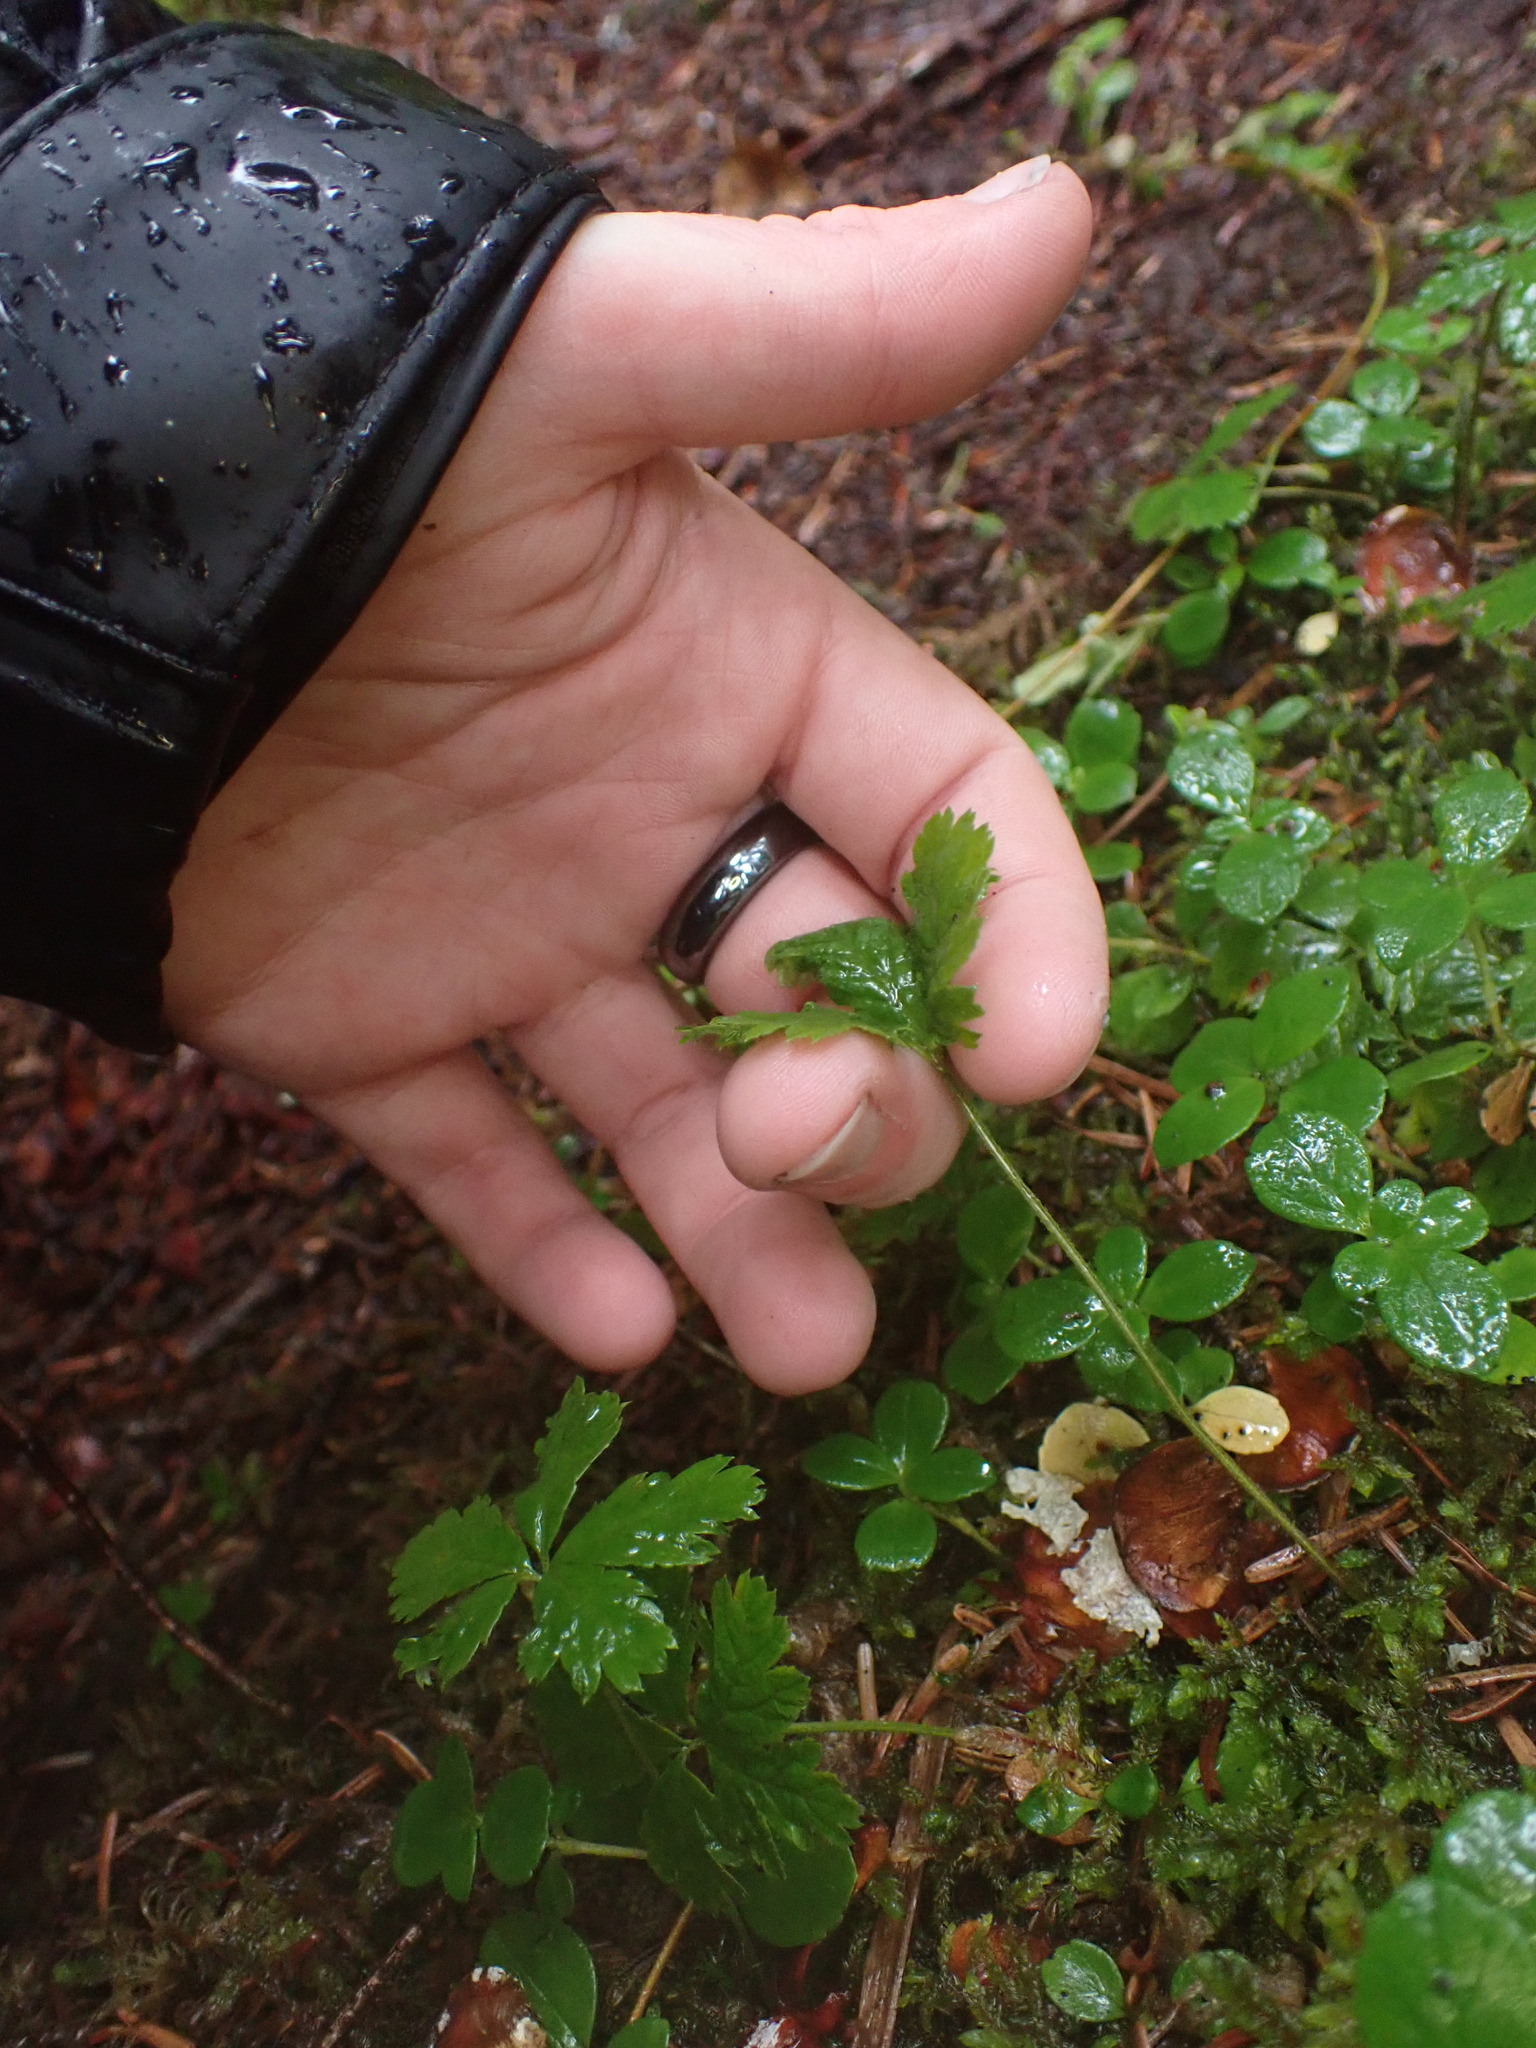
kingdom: Plantae
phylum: Tracheophyta
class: Magnoliopsida
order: Rosales
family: Rosaceae
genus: Rubus
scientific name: Rubus pedatus
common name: Creeping raspberry
